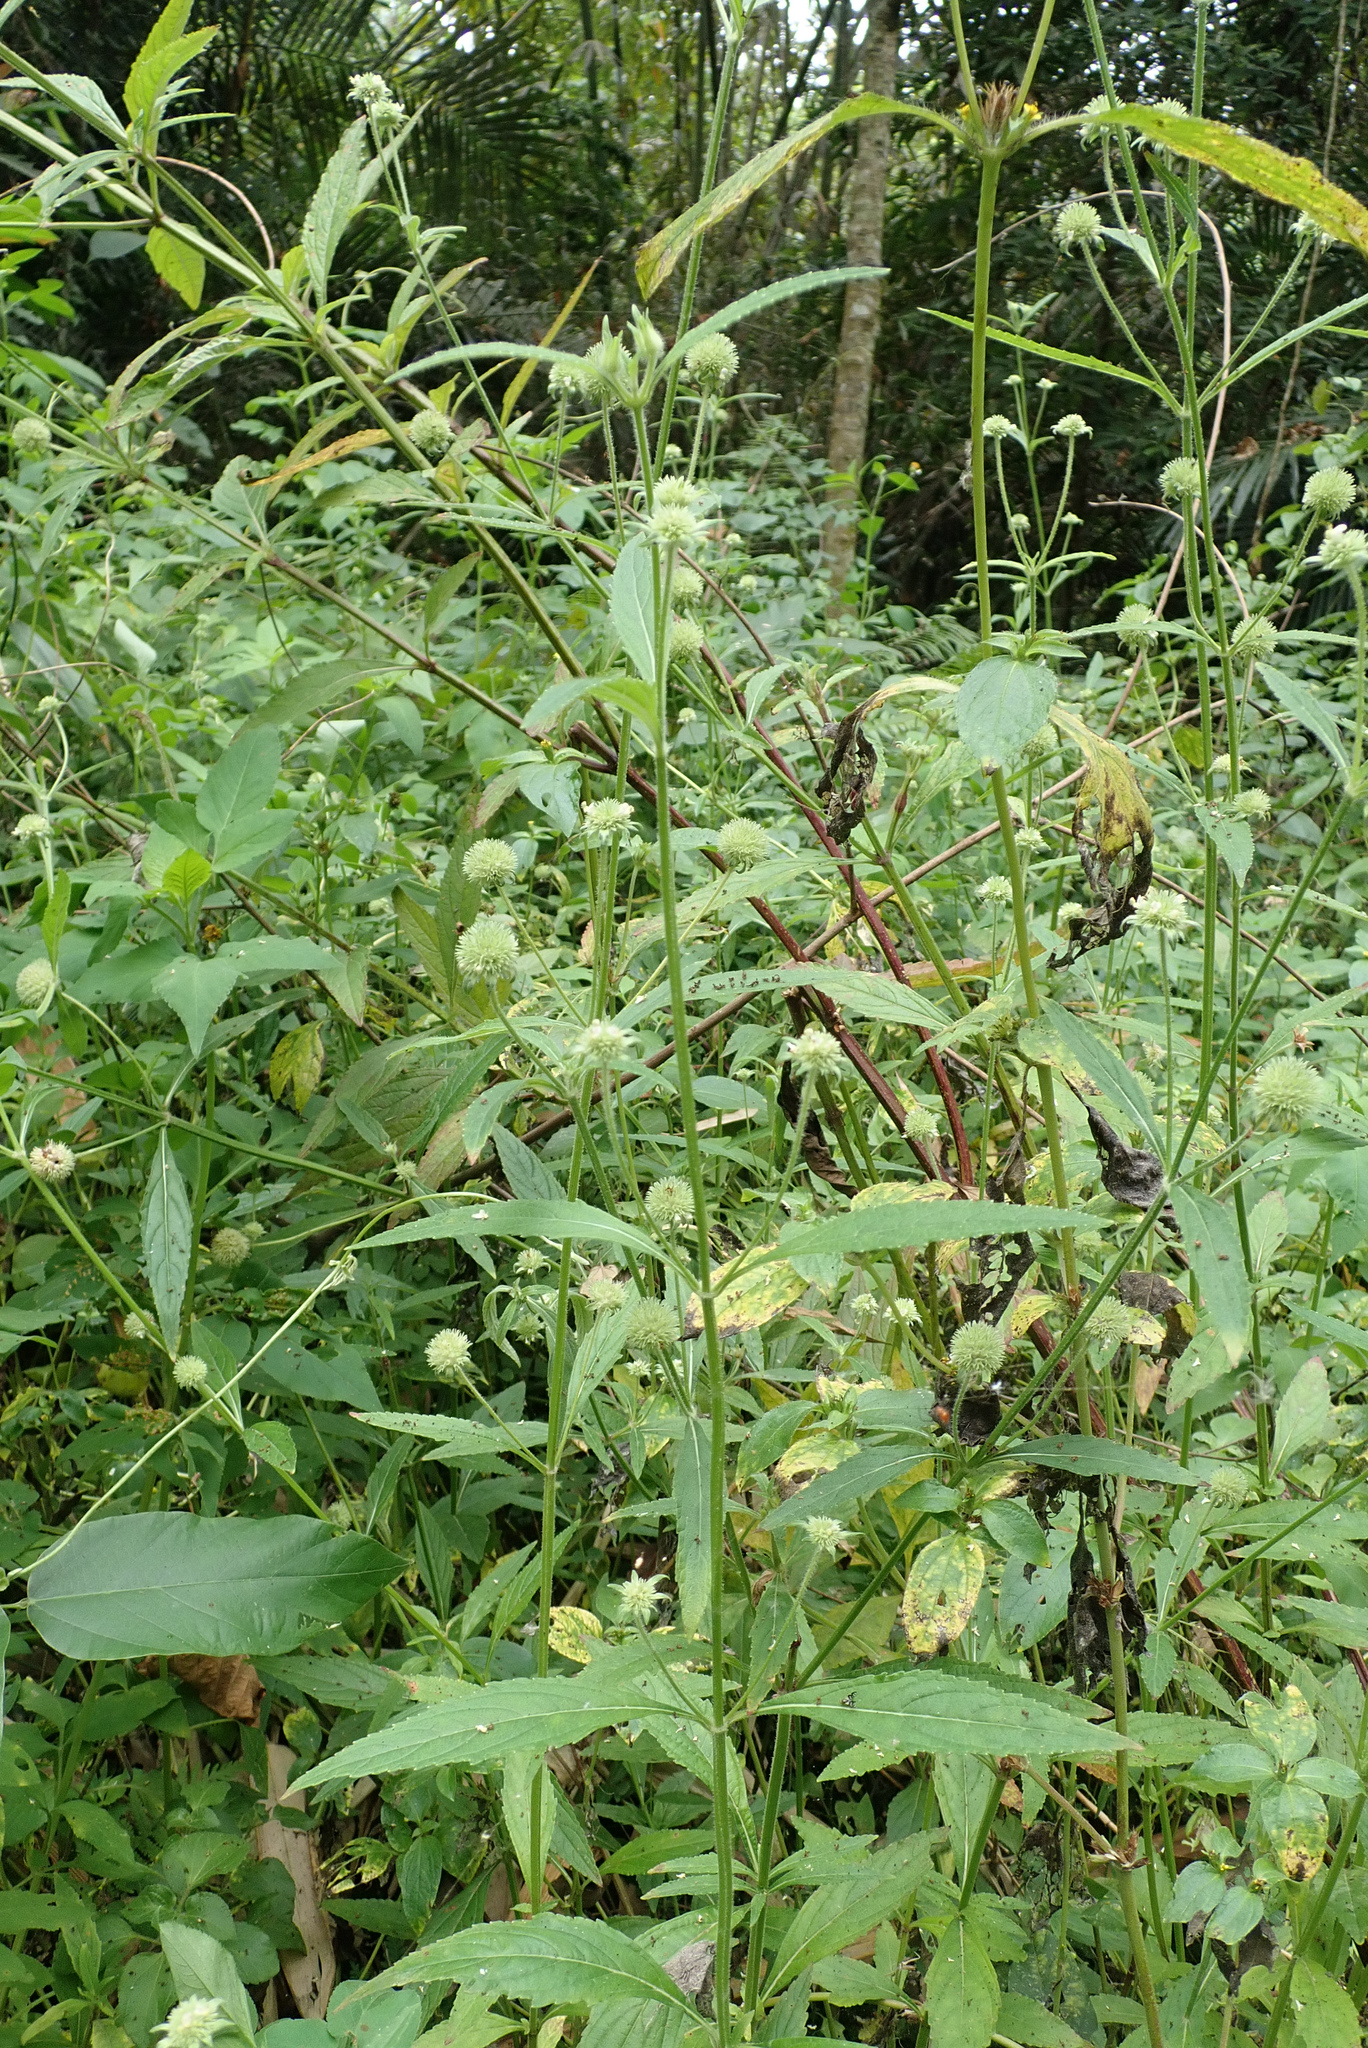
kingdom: Plantae
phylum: Tracheophyta
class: Magnoliopsida
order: Lamiales
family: Lamiaceae
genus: Hyptis
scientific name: Hyptis capitata
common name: False ironwort
